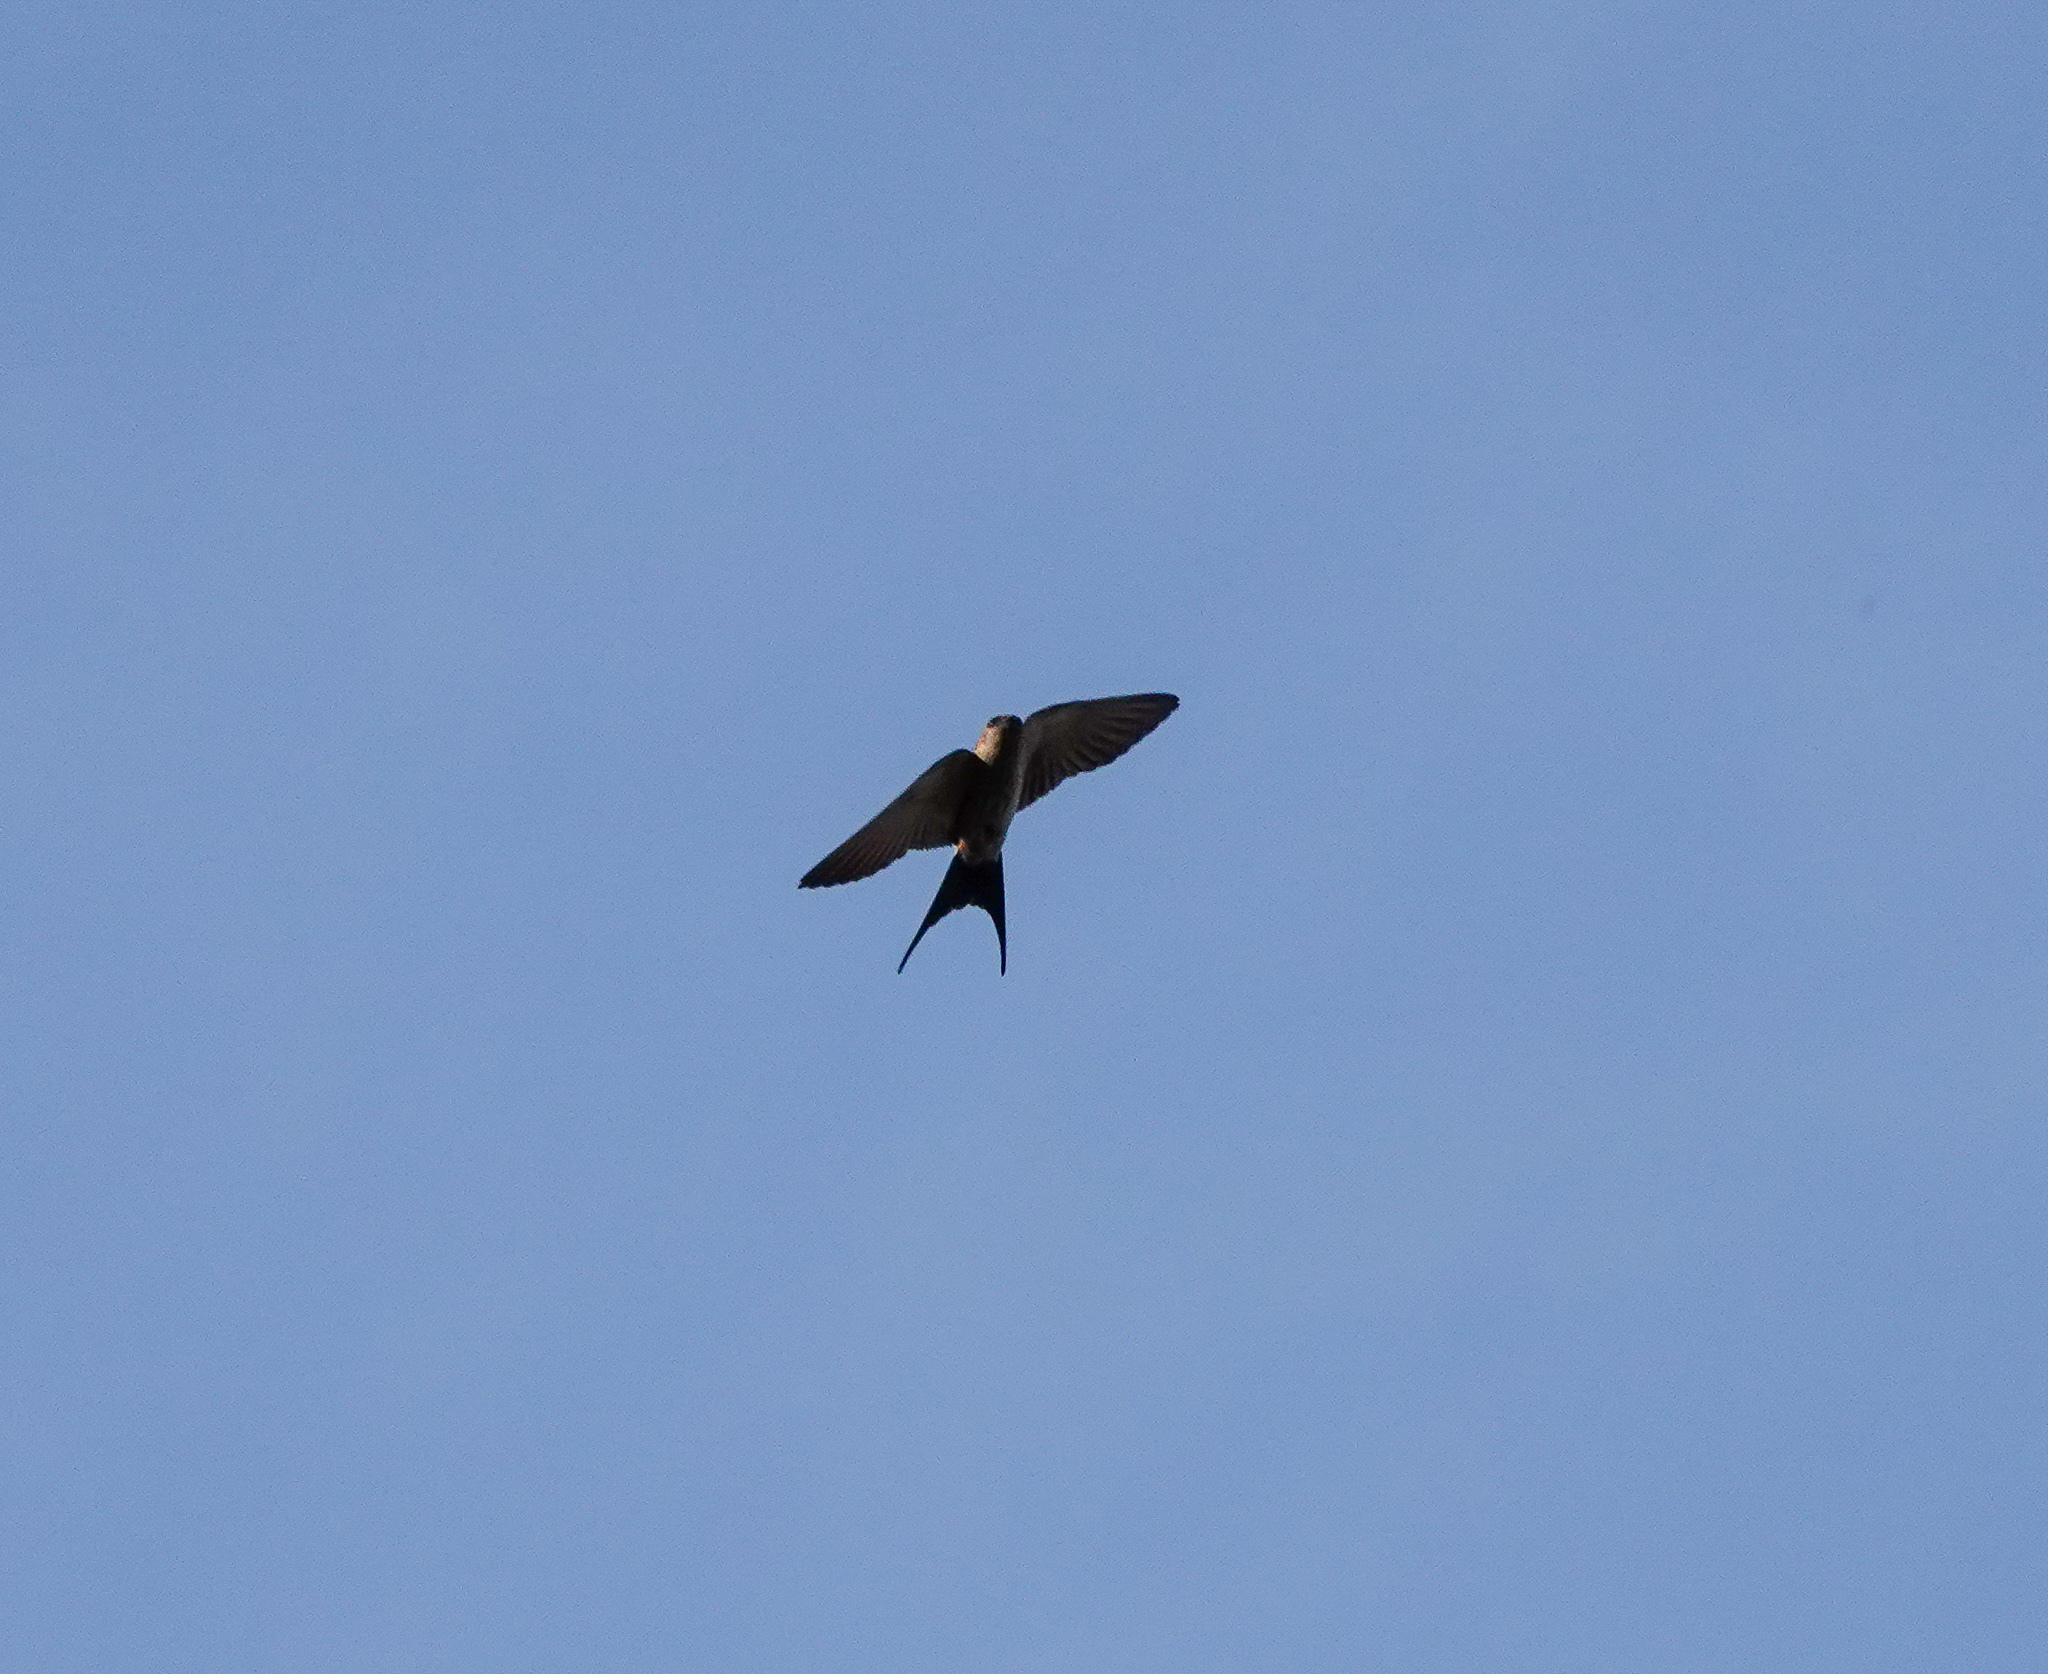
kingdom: Animalia
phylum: Chordata
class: Aves
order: Passeriformes
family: Hirundinidae
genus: Cecropis
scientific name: Cecropis daurica
